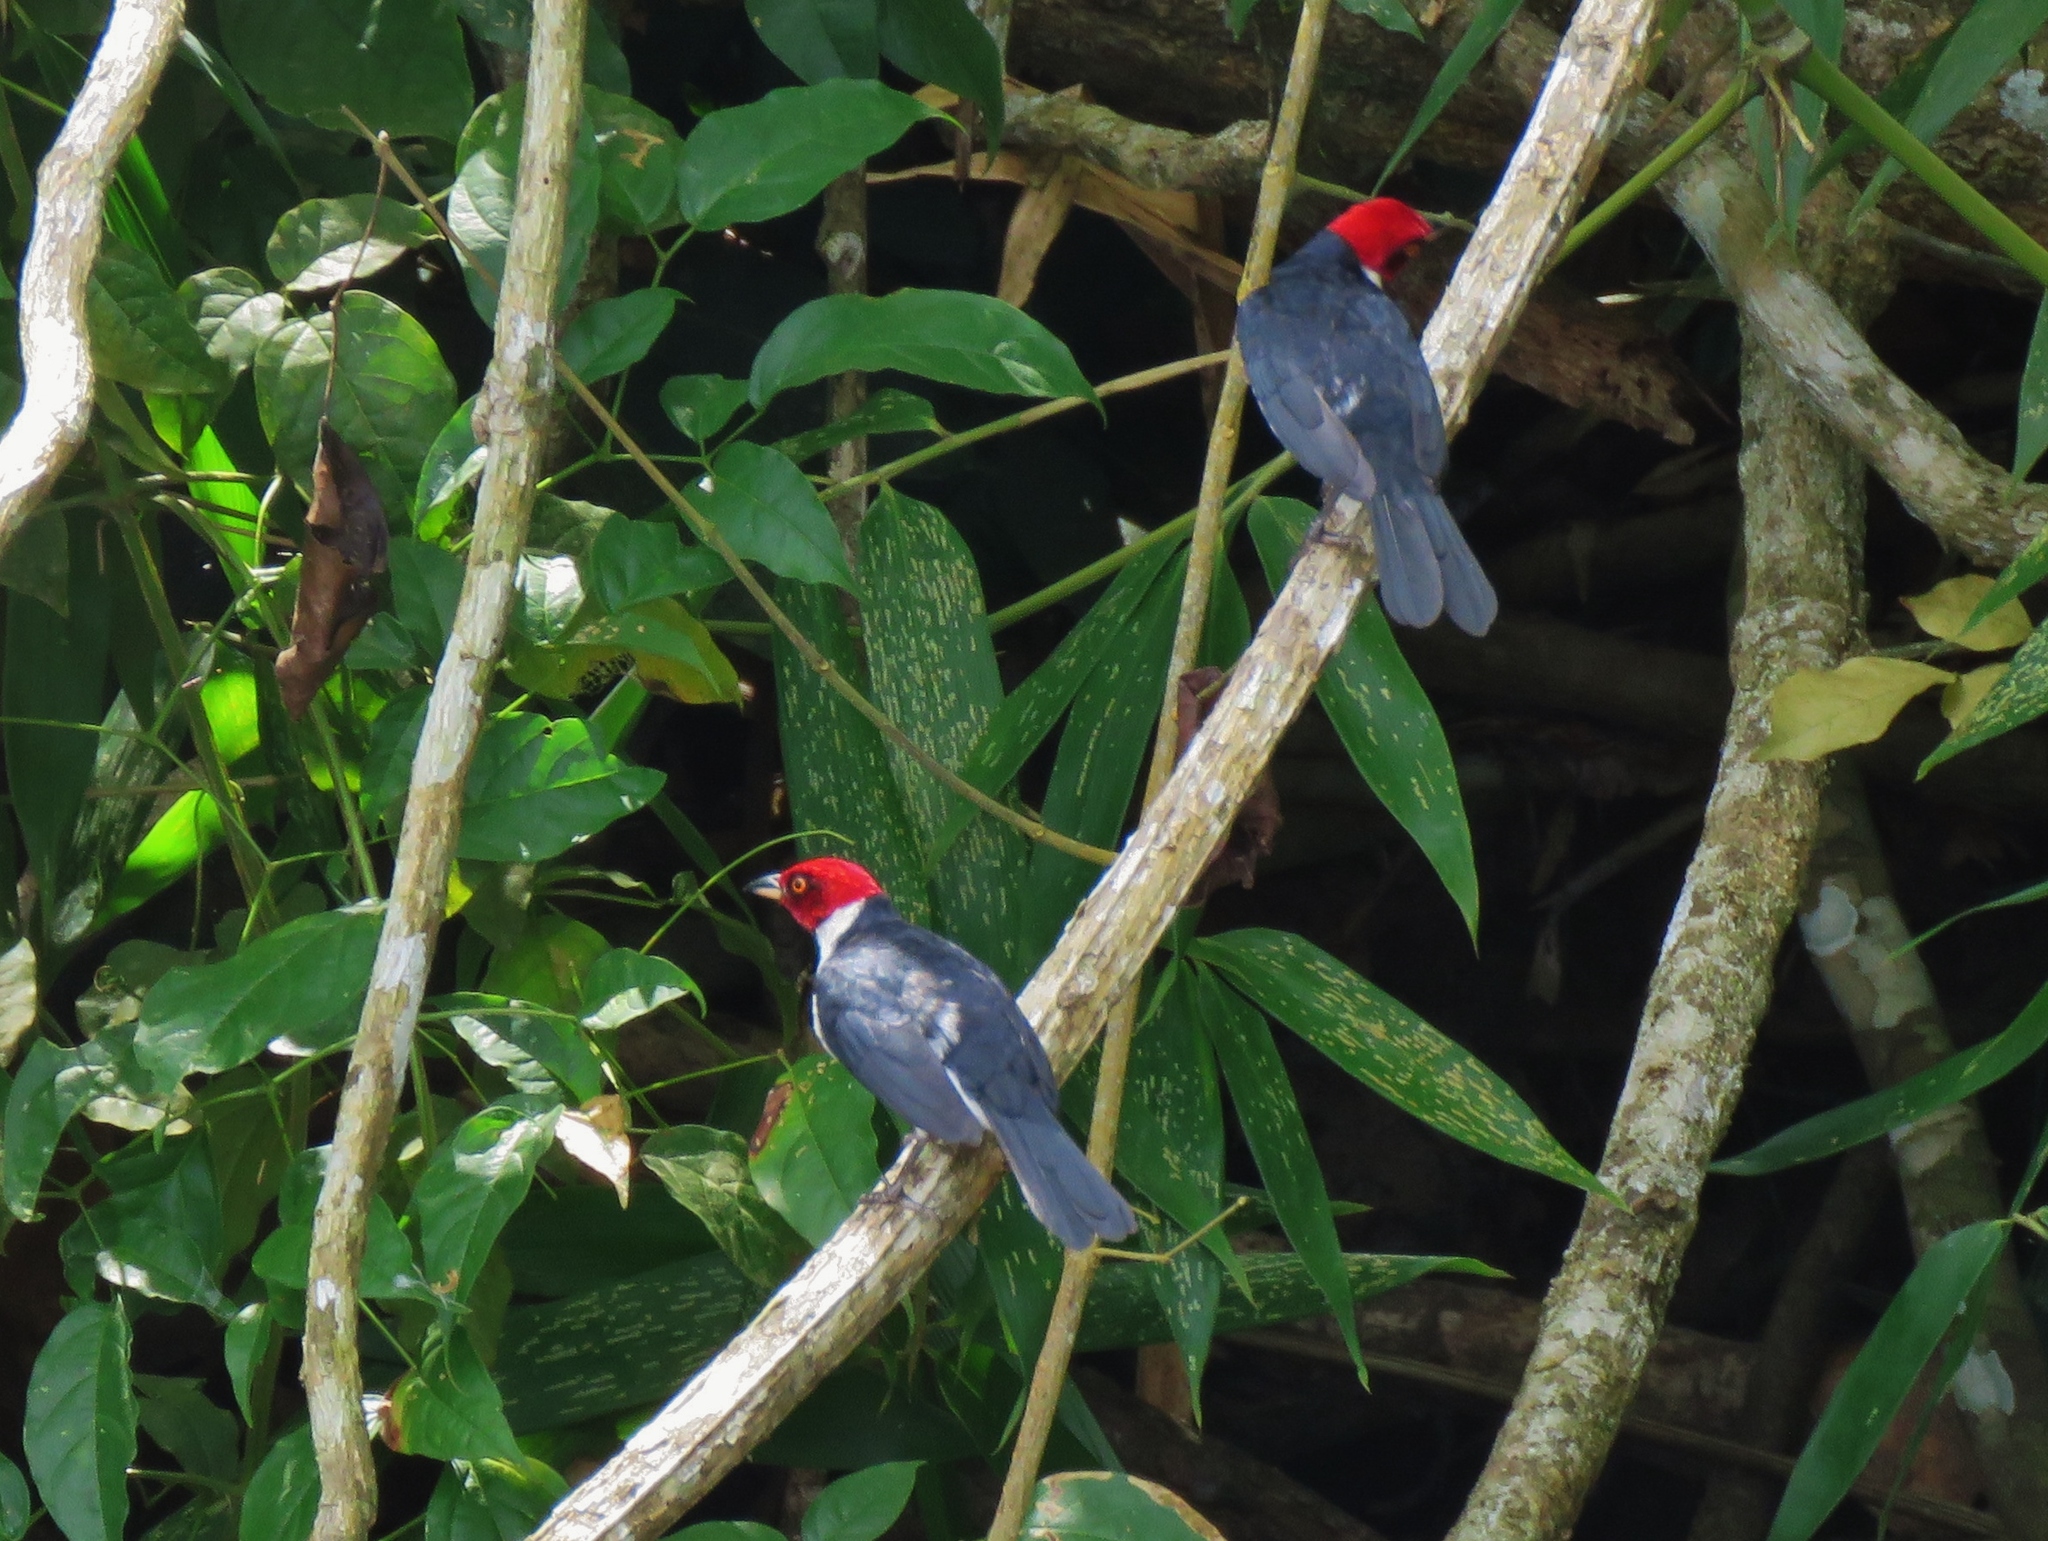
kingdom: Animalia
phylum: Chordata
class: Aves
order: Passeriformes
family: Thraupidae
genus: Paroaria
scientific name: Paroaria gularis
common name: Red-capped cardinal
